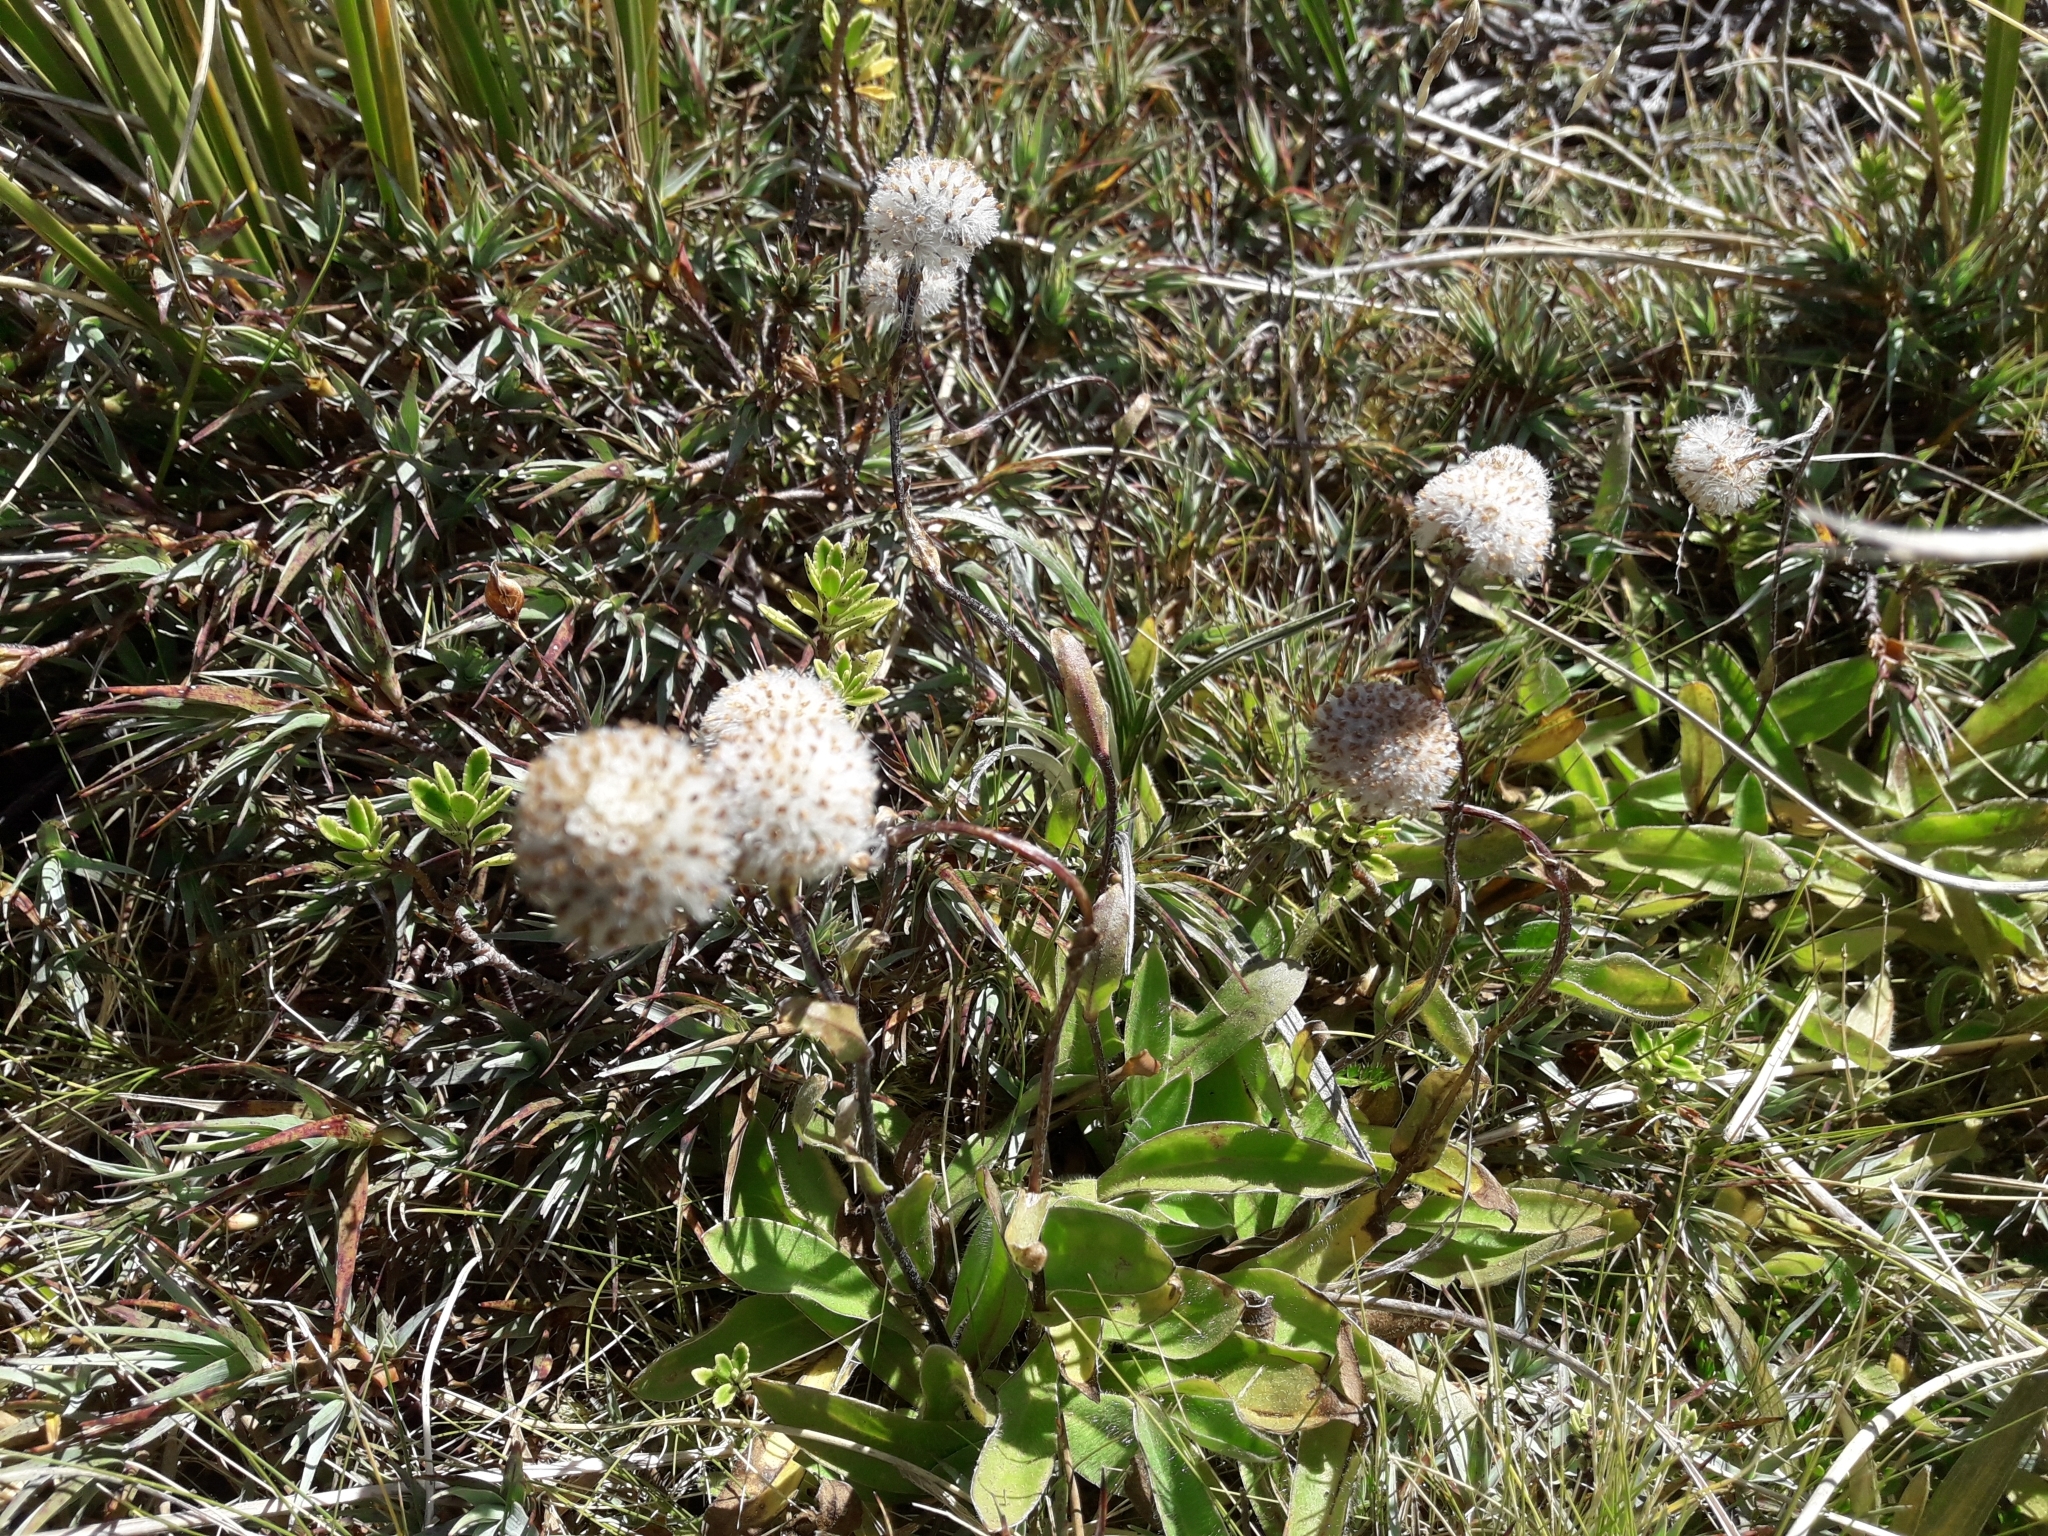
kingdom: Plantae
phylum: Tracheophyta
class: Magnoliopsida
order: Asterales
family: Asteraceae
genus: Craspedia
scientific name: Craspedia uniflora
